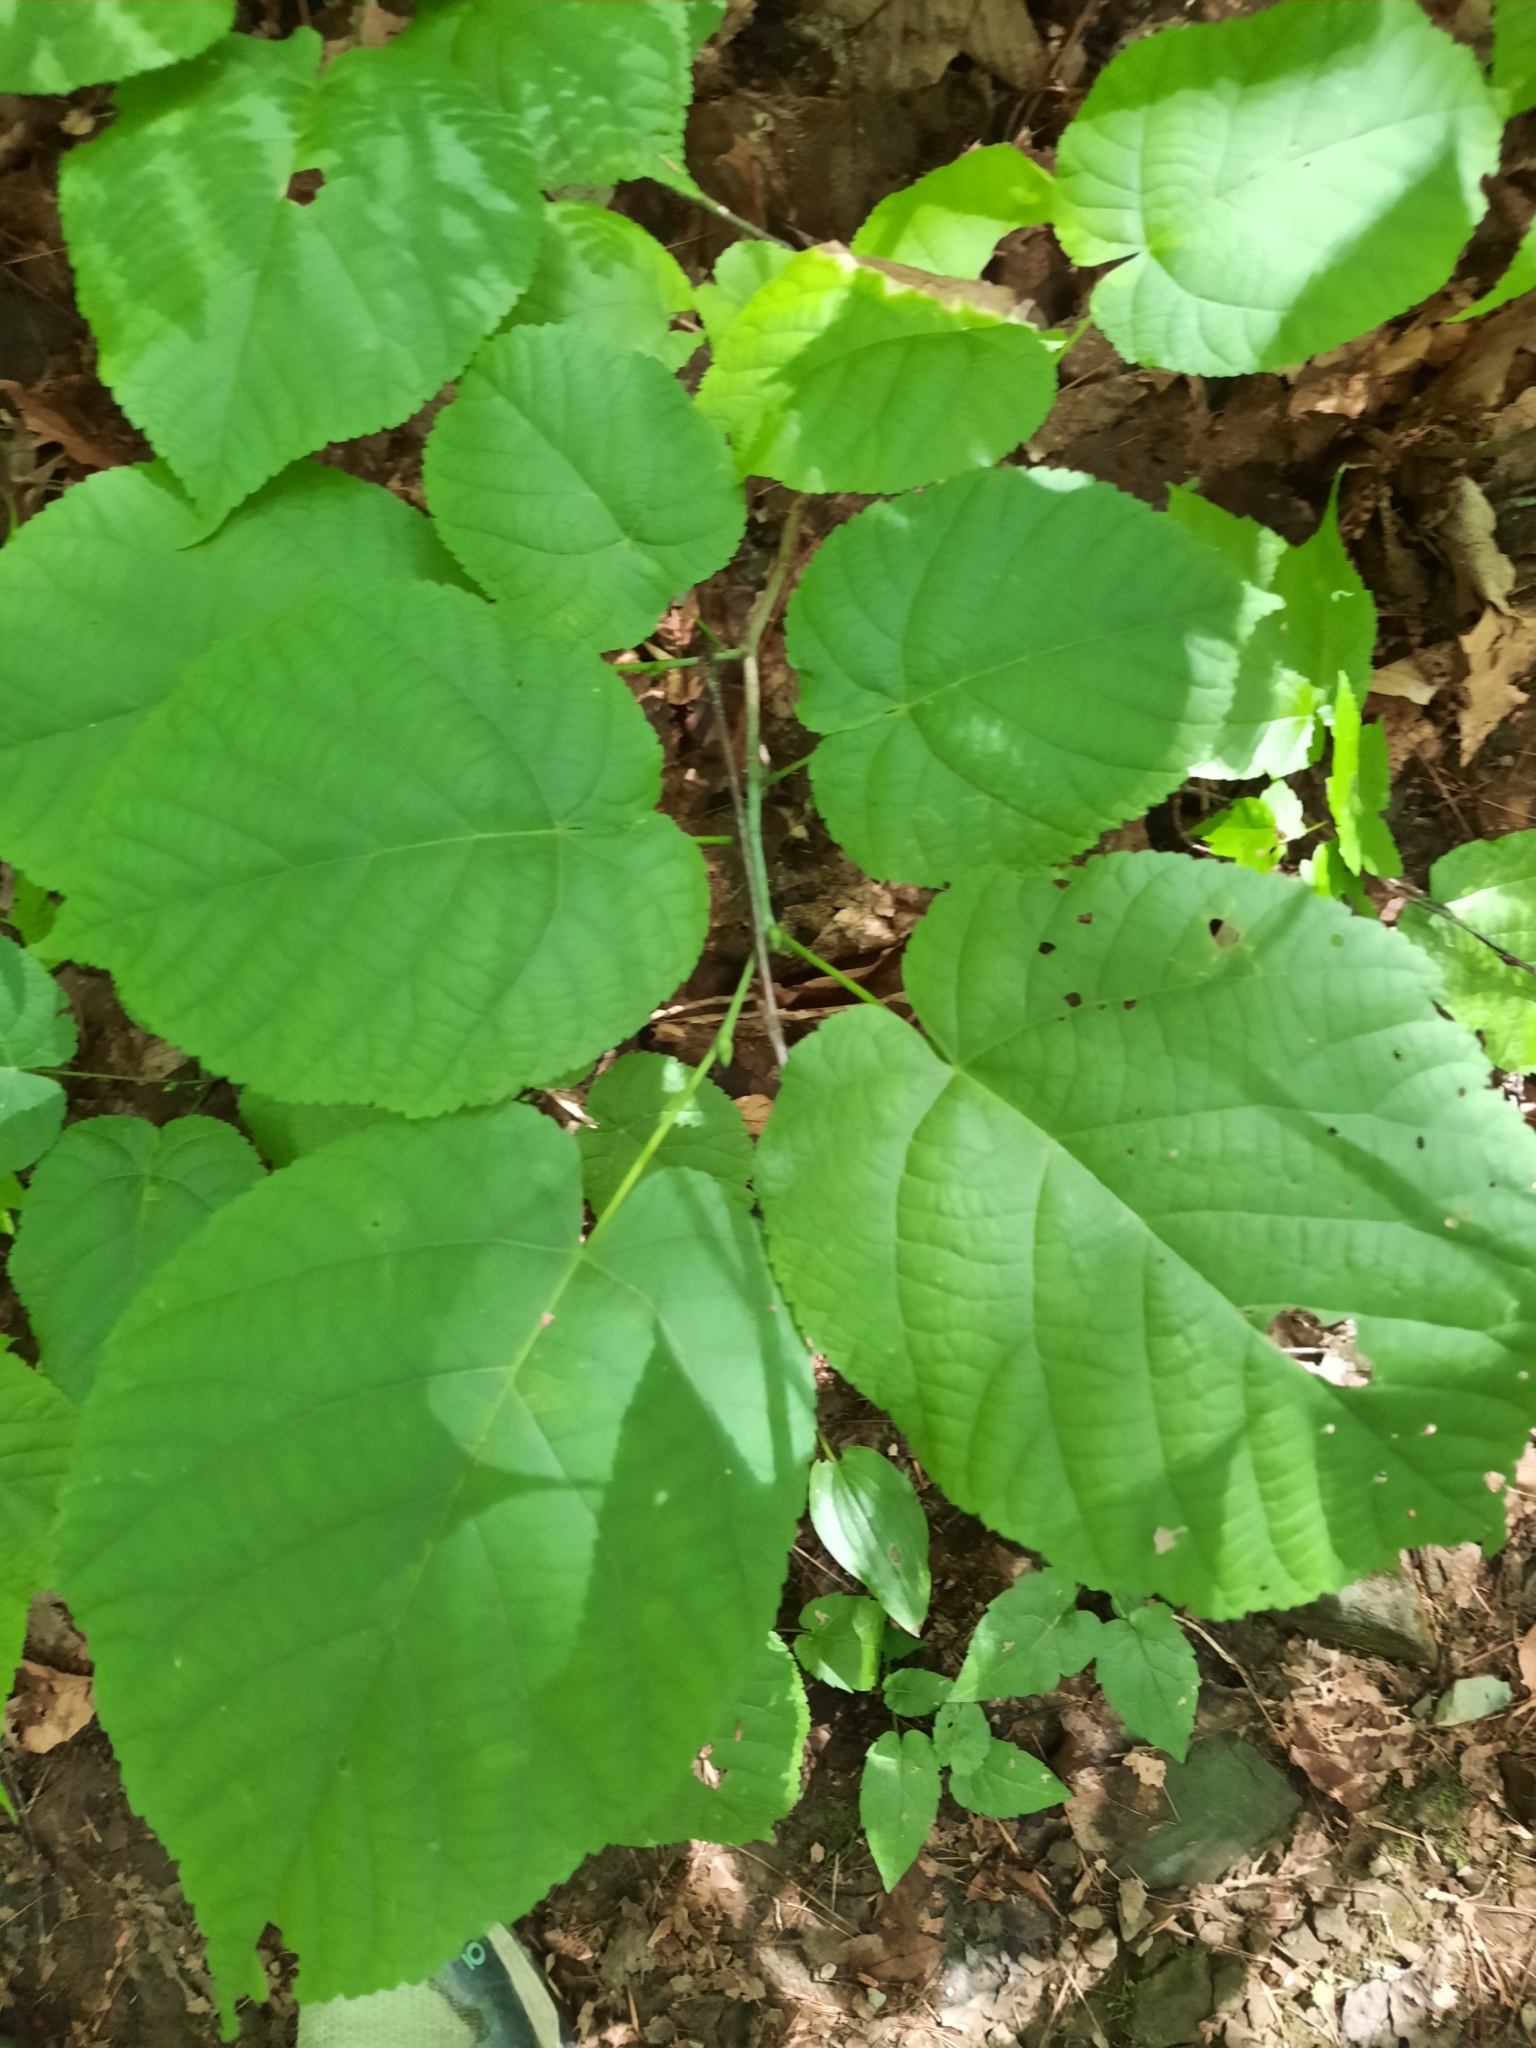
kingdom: Plantae
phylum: Tracheophyta
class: Magnoliopsida
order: Malvales
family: Malvaceae
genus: Tilia
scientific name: Tilia americana
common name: Basswood
